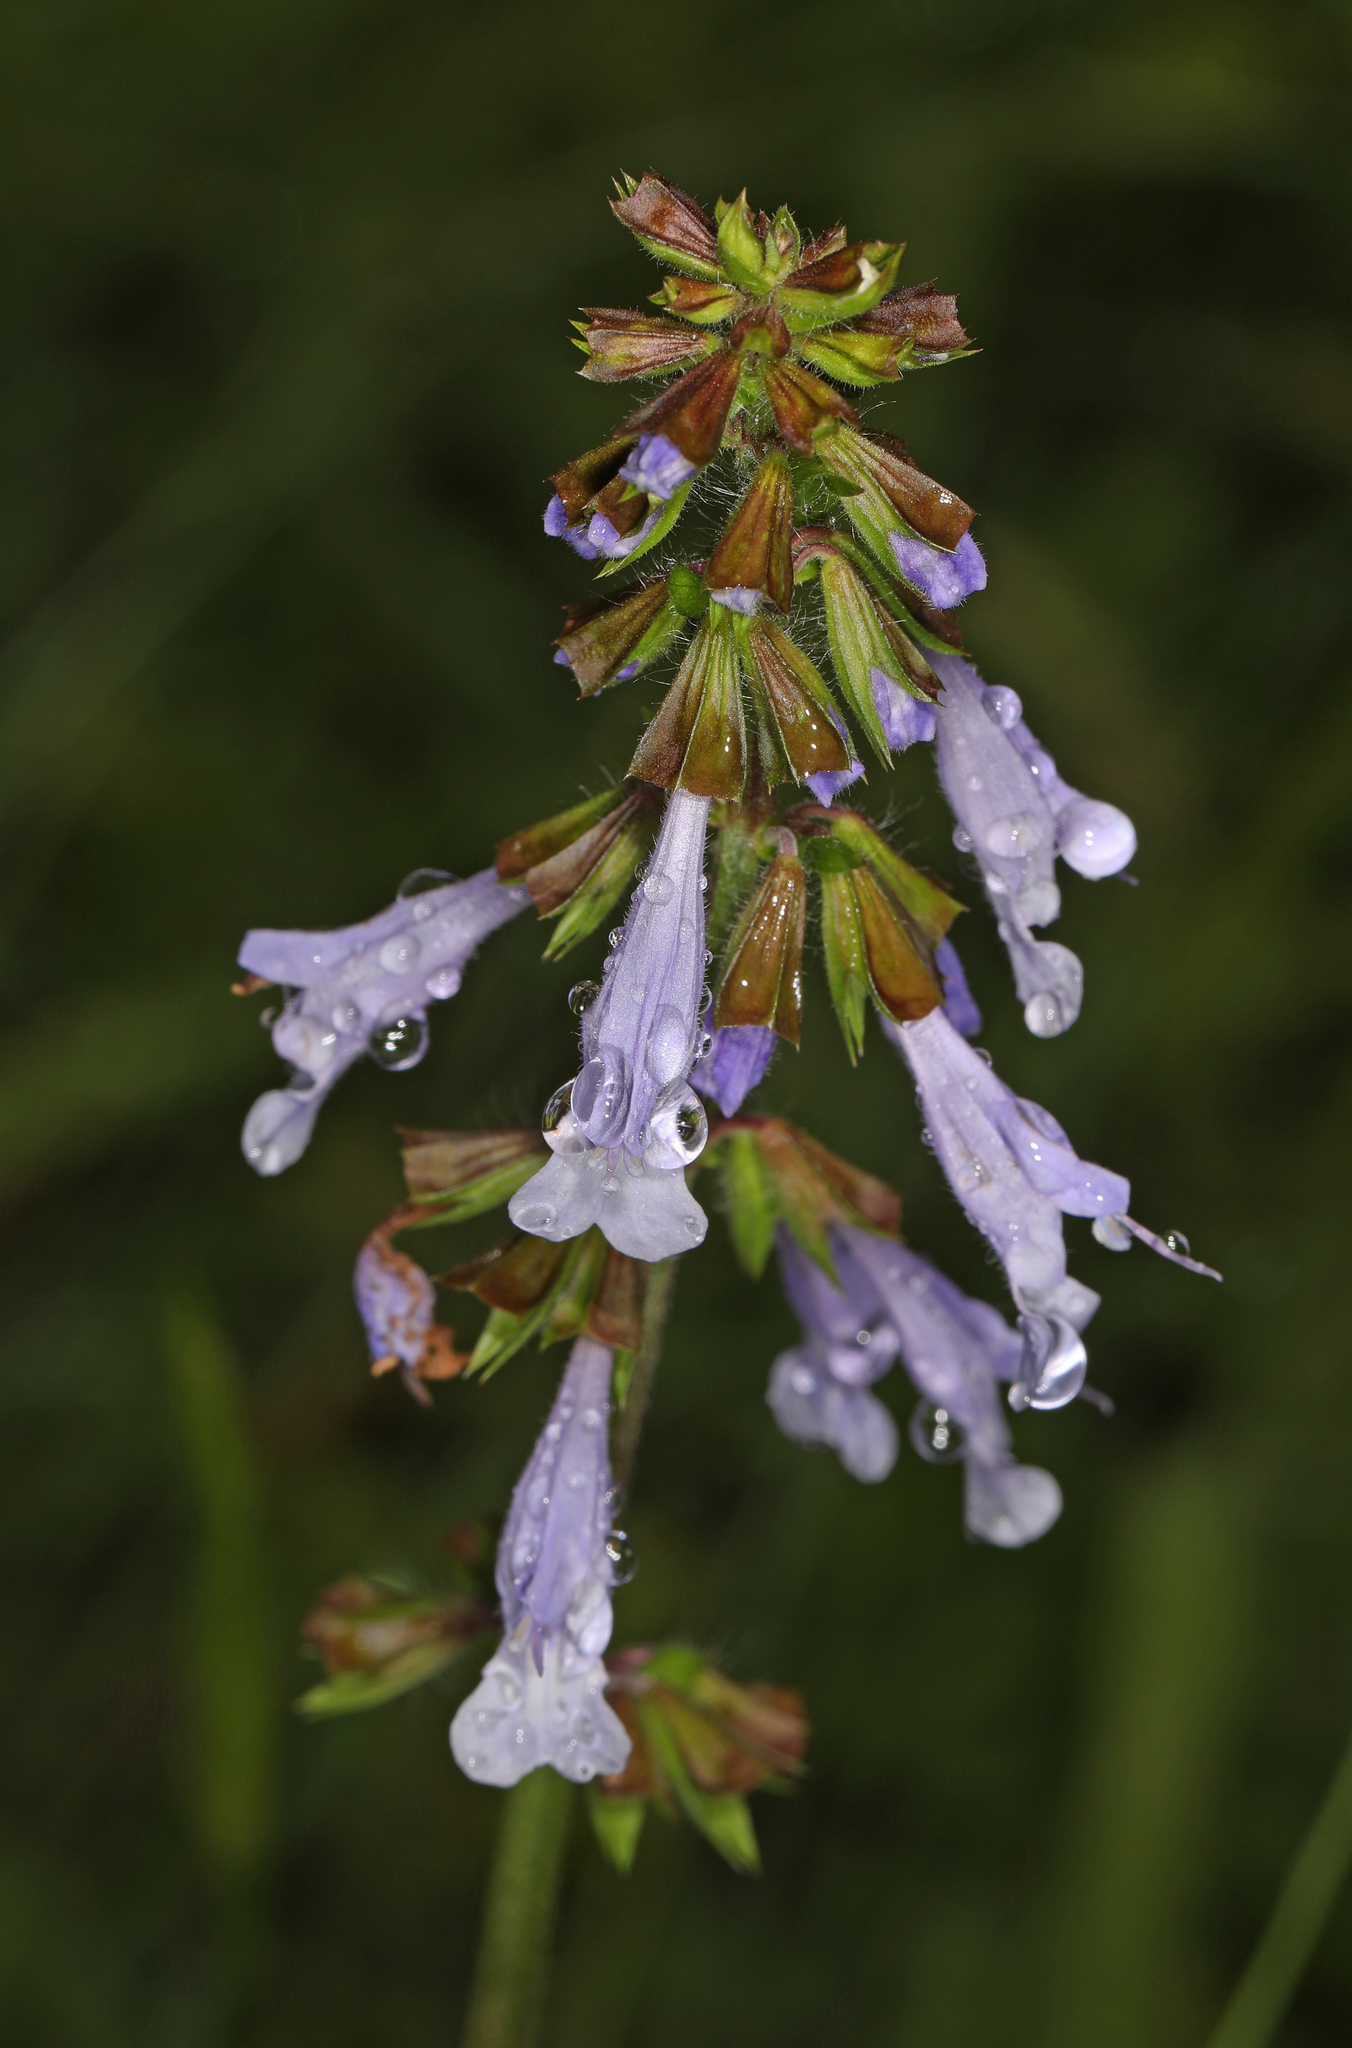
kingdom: Plantae
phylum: Tracheophyta
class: Magnoliopsida
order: Lamiales
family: Lamiaceae
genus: Salvia
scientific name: Salvia lyrata
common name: Cancerweed
